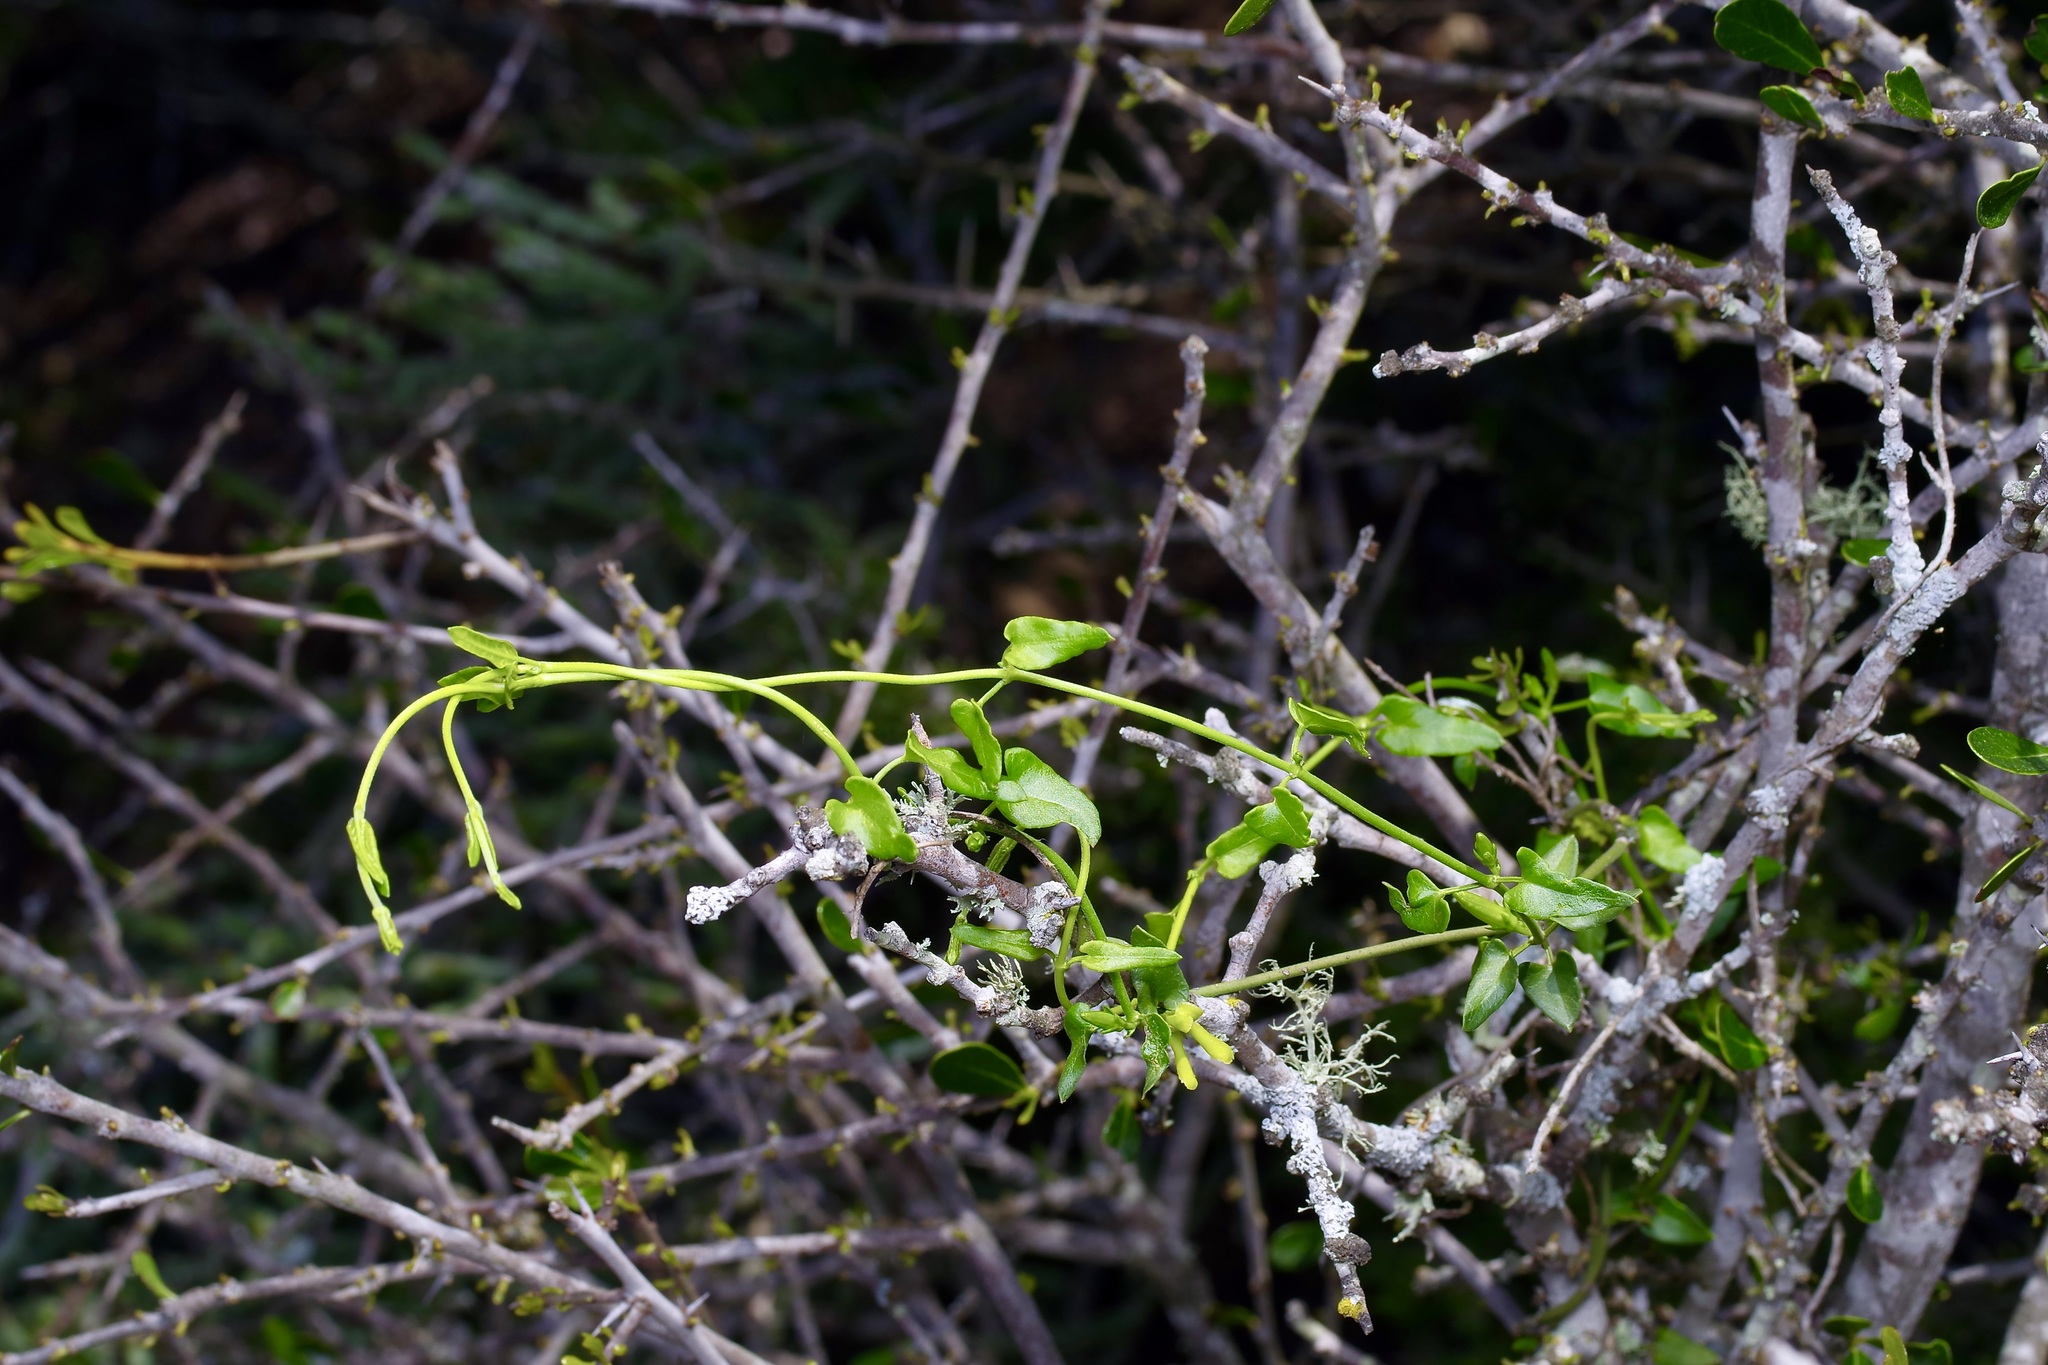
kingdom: Plantae
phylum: Tracheophyta
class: Magnoliopsida
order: Gentianales
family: Apocynaceae
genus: Matelea
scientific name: Matelea sagittifolia
